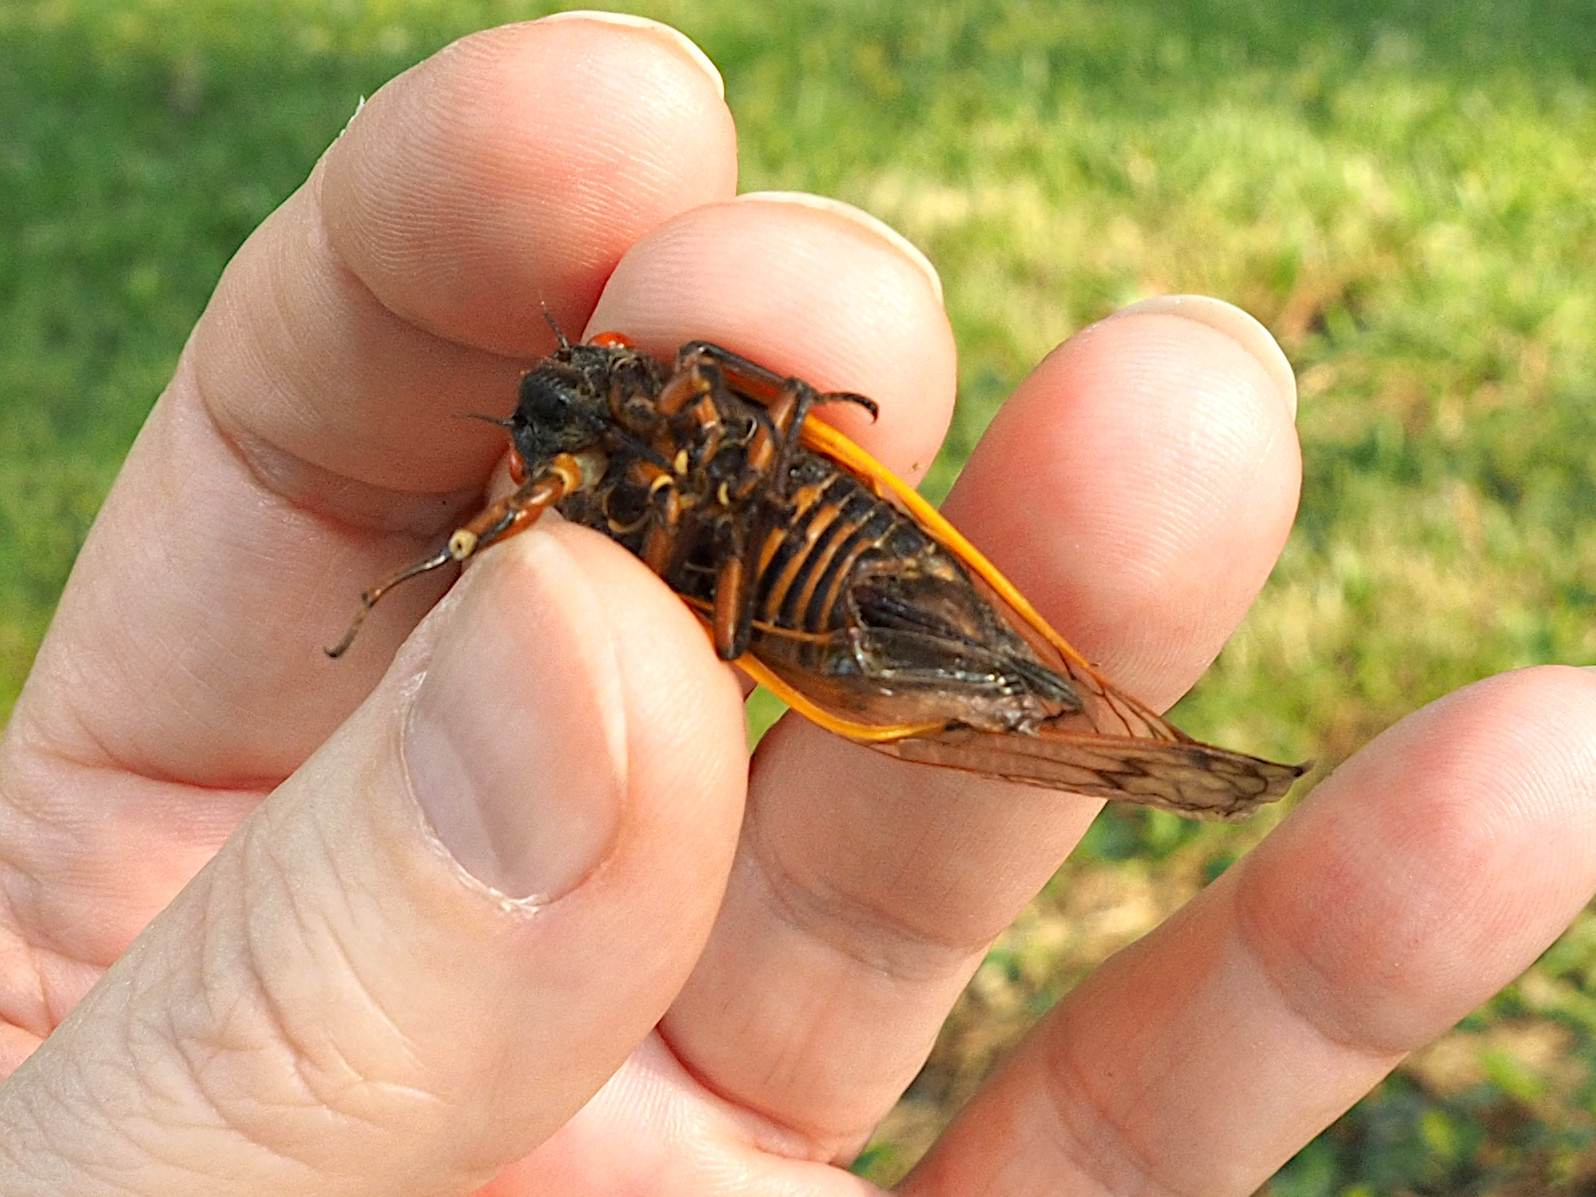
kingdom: Animalia
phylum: Arthropoda
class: Insecta
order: Hemiptera
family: Cicadidae
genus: Magicicada
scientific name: Magicicada septendecim
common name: Periodical cicada
